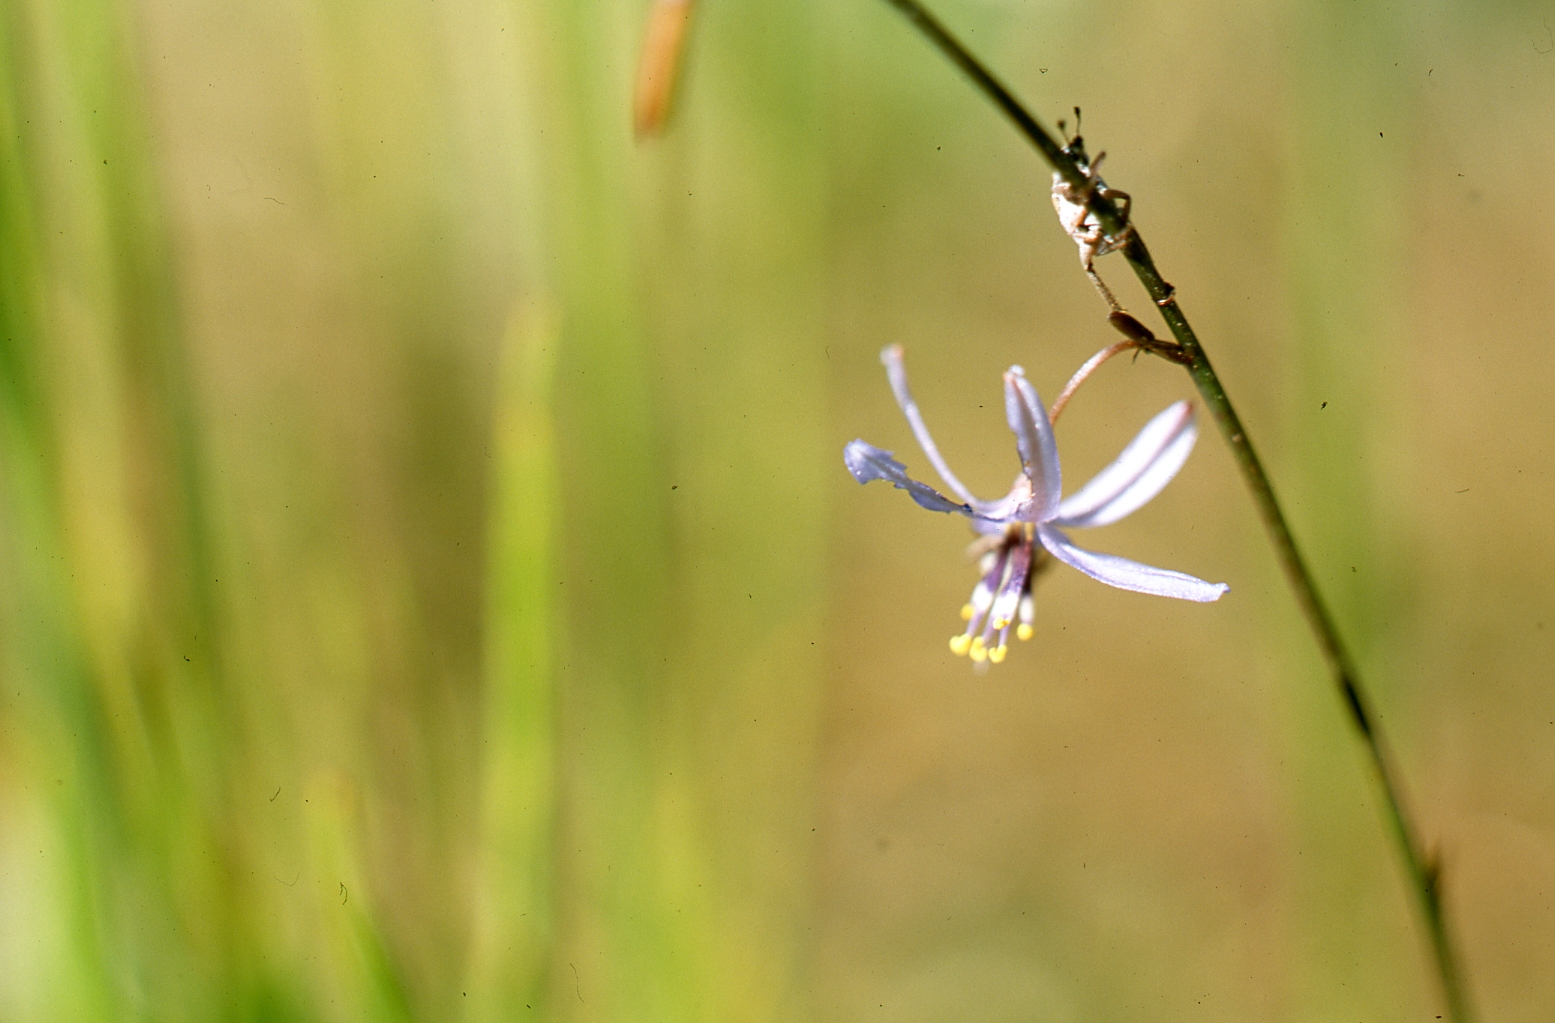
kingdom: Plantae
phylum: Tracheophyta
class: Liliopsida
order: Asparagales
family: Asphodelaceae
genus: Caesia
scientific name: Caesia contorta
